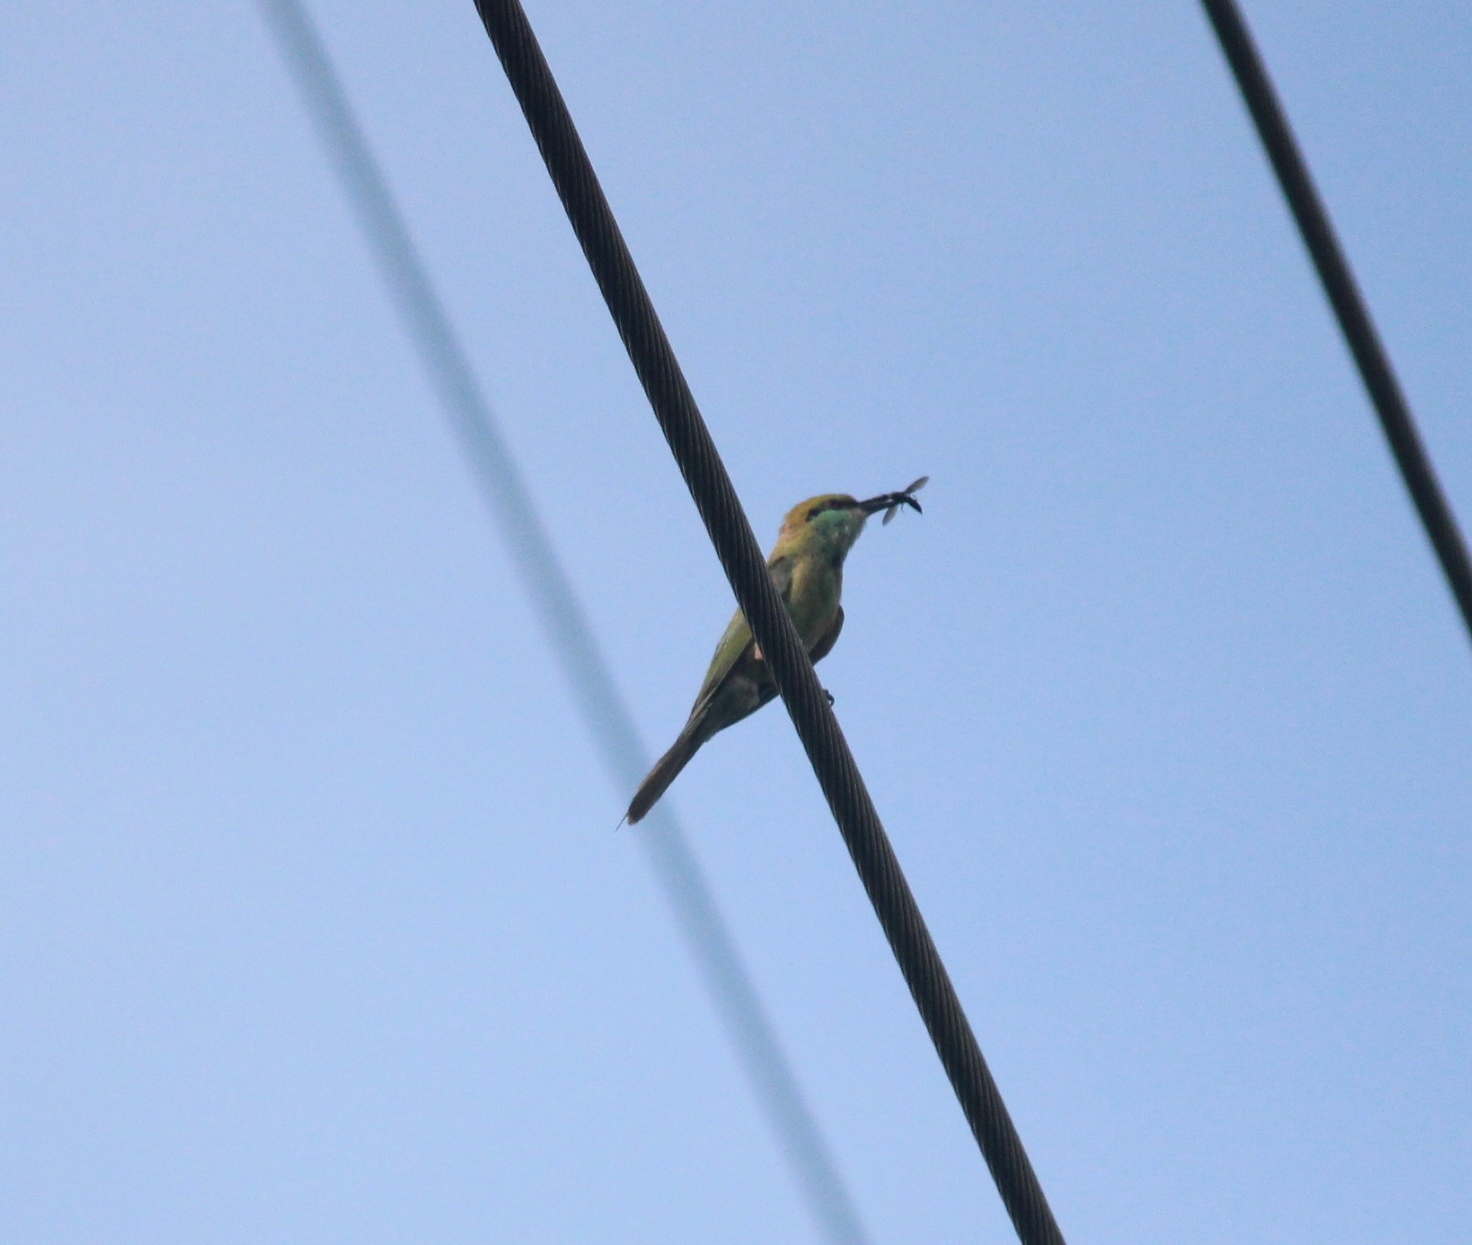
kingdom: Animalia
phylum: Chordata
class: Aves
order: Coraciiformes
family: Meropidae
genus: Merops
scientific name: Merops orientalis
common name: Green bee-eater
